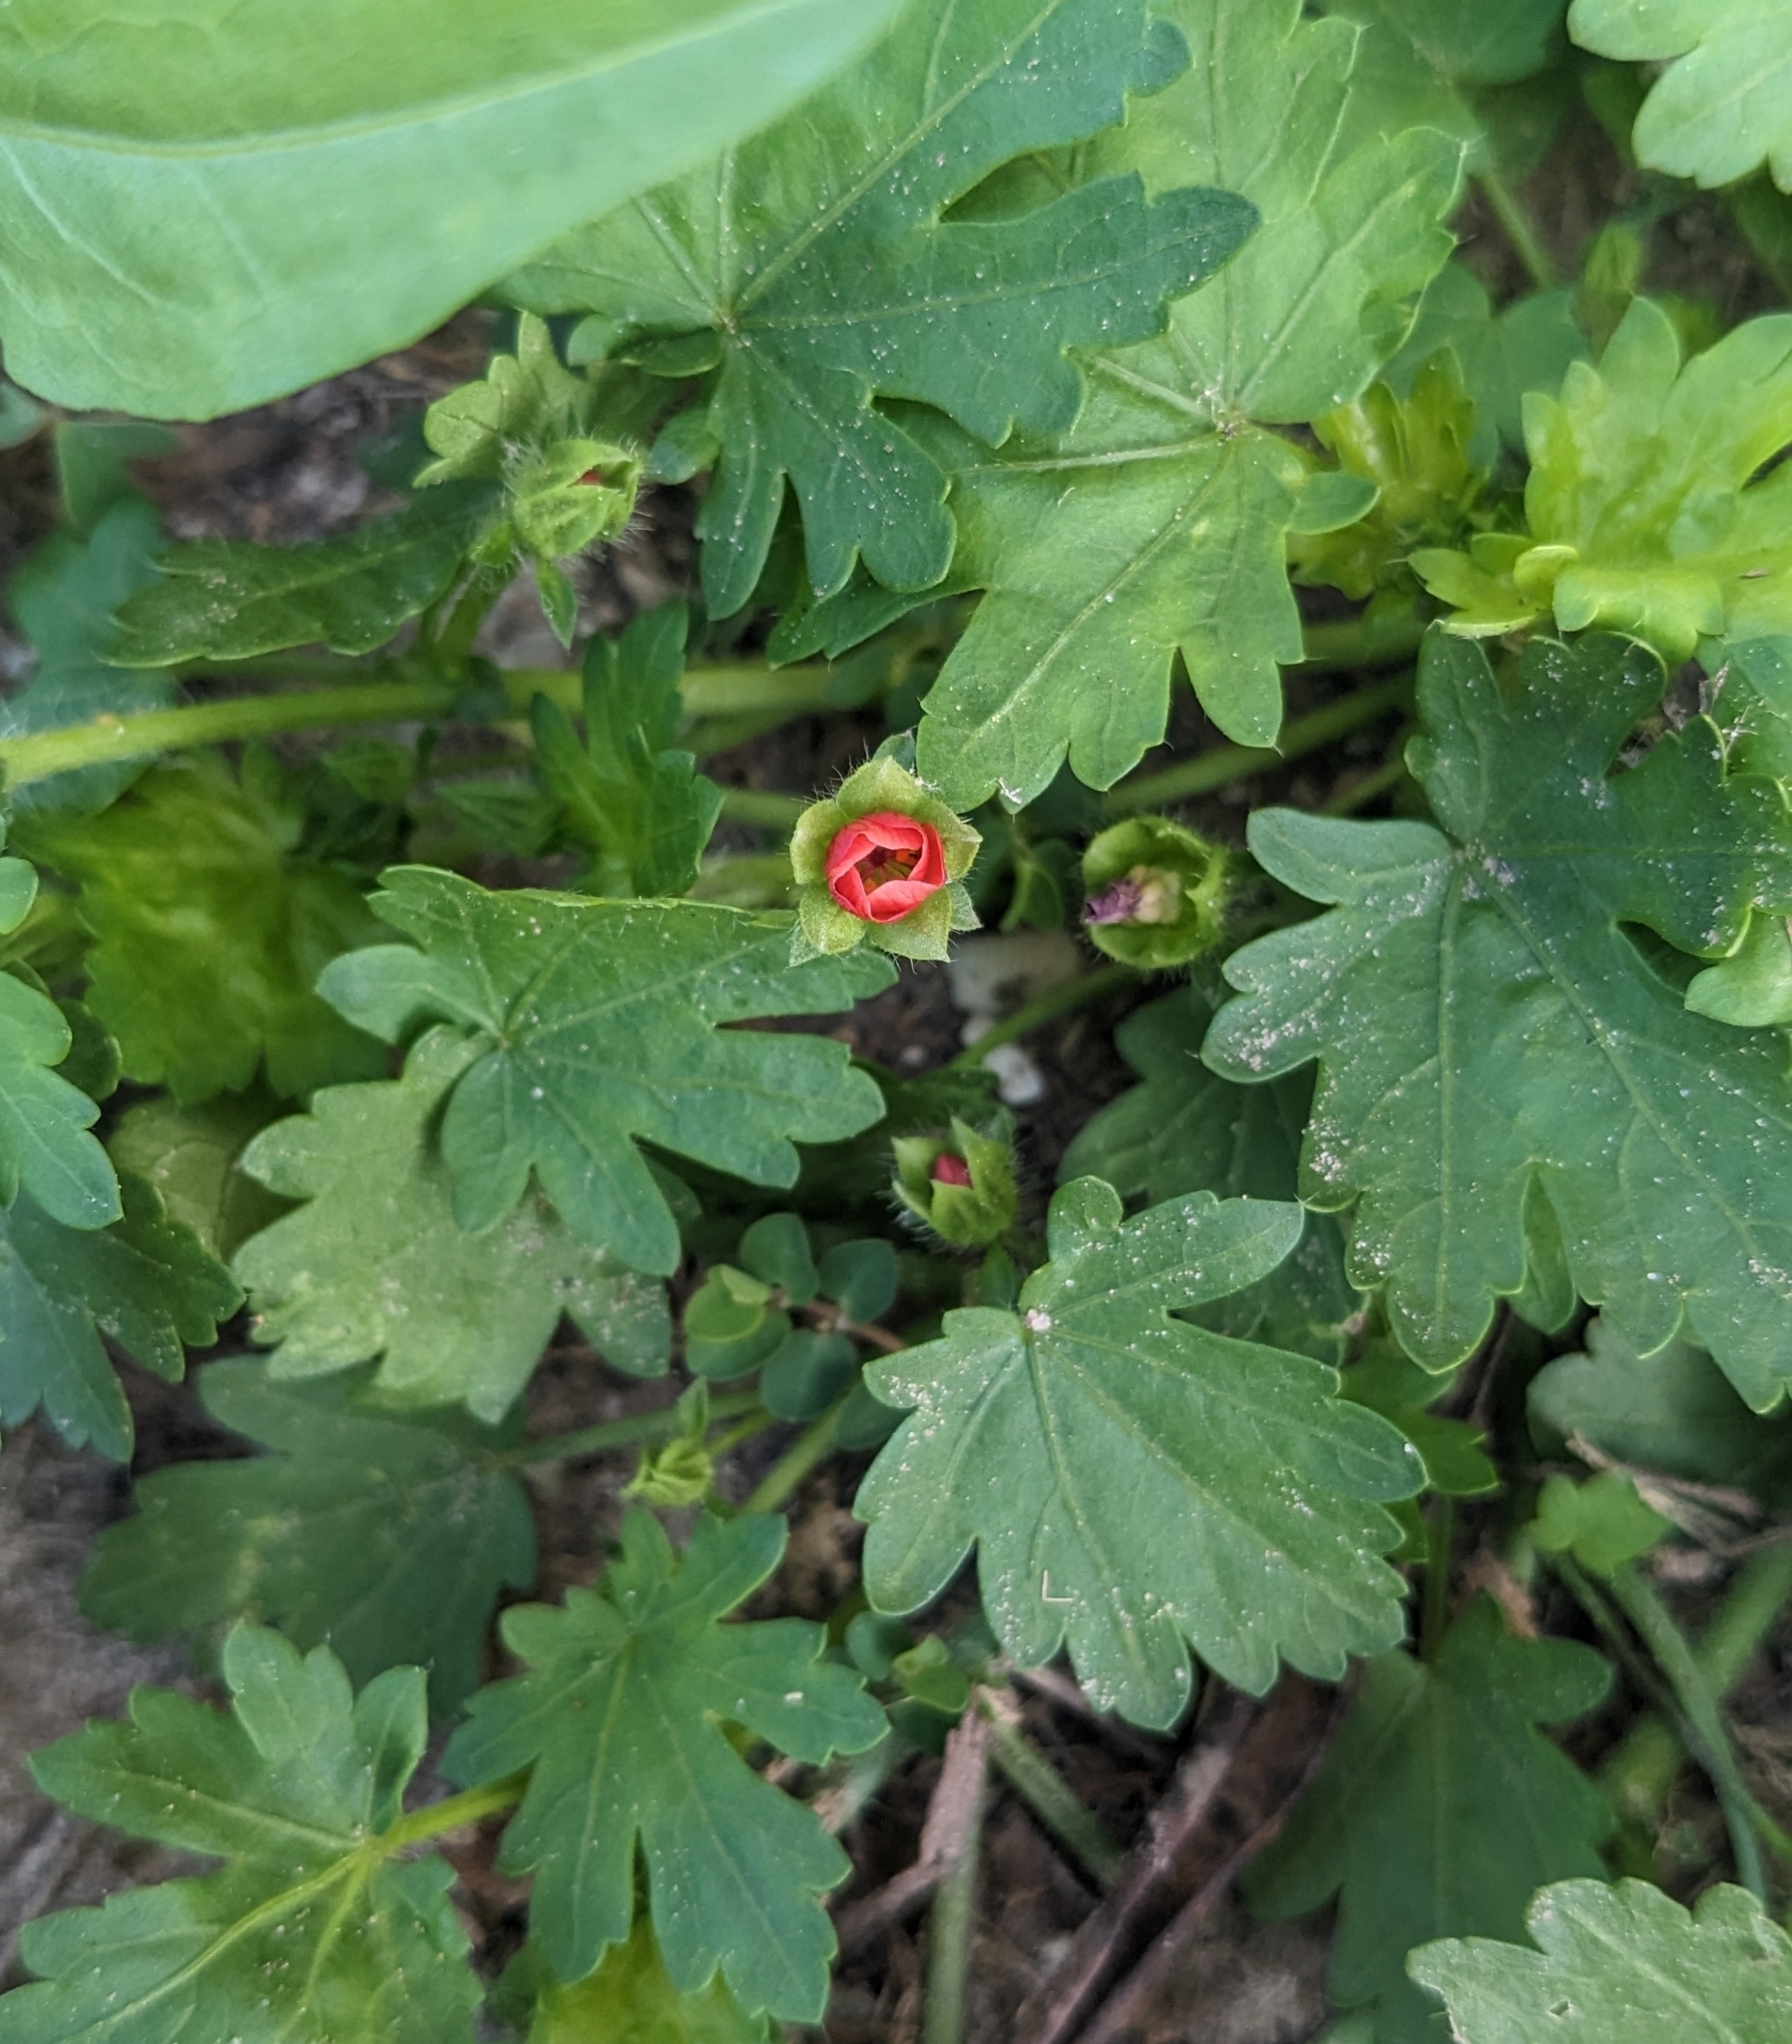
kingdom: Plantae
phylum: Tracheophyta
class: Magnoliopsida
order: Malvales
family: Malvaceae
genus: Modiola
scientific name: Modiola caroliniana
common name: Carolina bristlemallow
